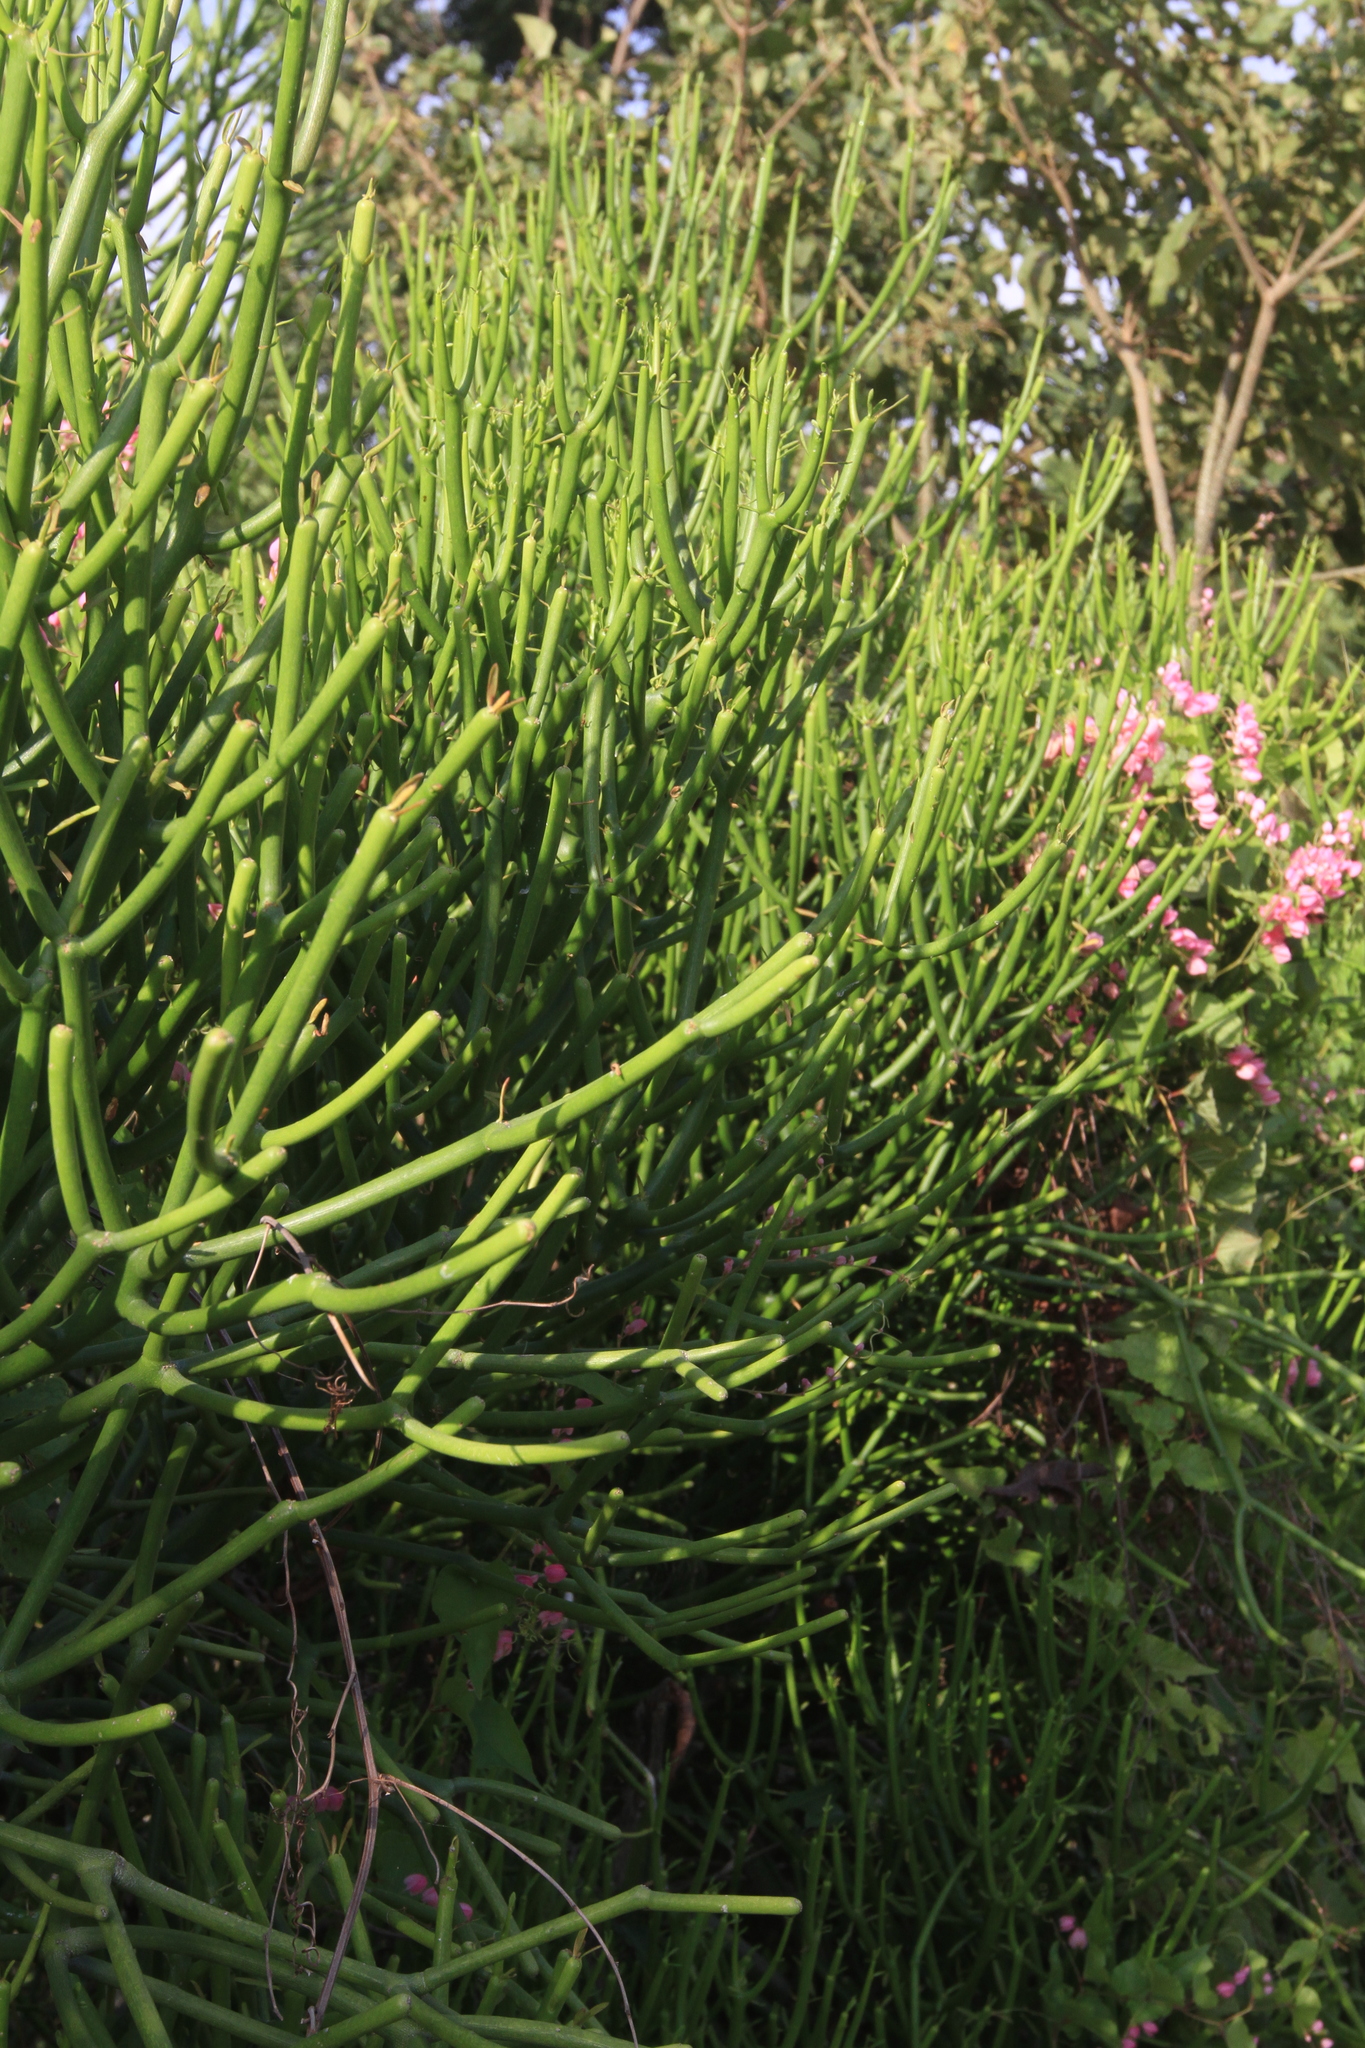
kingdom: Plantae
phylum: Tracheophyta
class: Magnoliopsida
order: Malpighiales
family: Euphorbiaceae
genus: Euphorbia
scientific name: Euphorbia tirucalli
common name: Indiantree spurge
